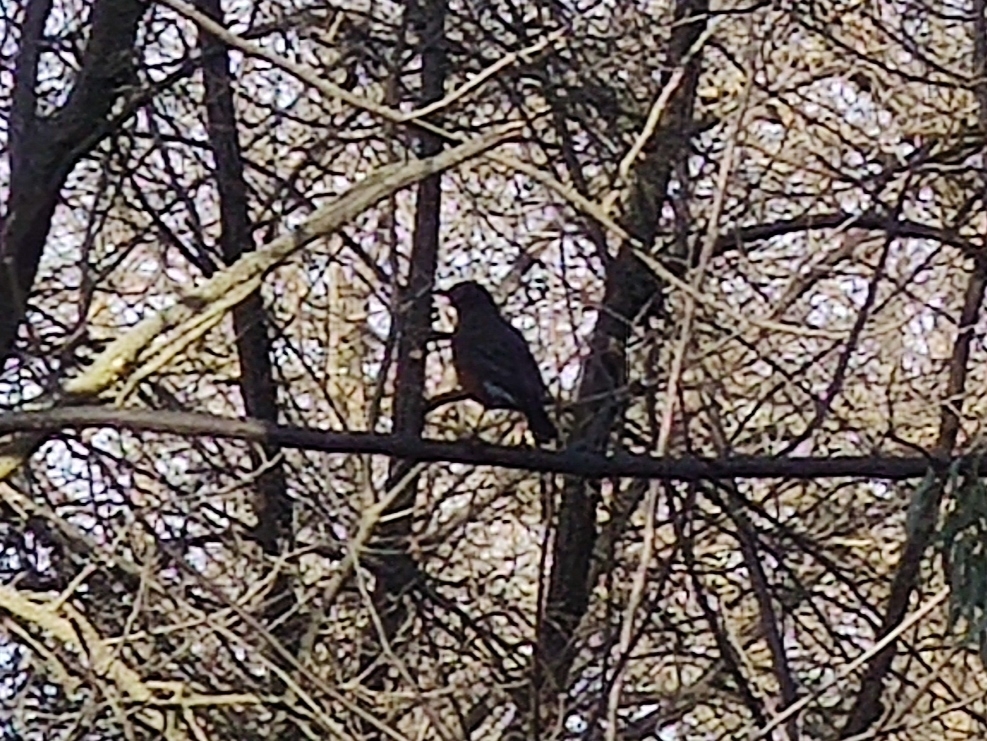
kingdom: Animalia
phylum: Chordata
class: Aves
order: Passeriformes
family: Turdidae
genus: Turdus
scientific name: Turdus migratorius
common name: American robin
